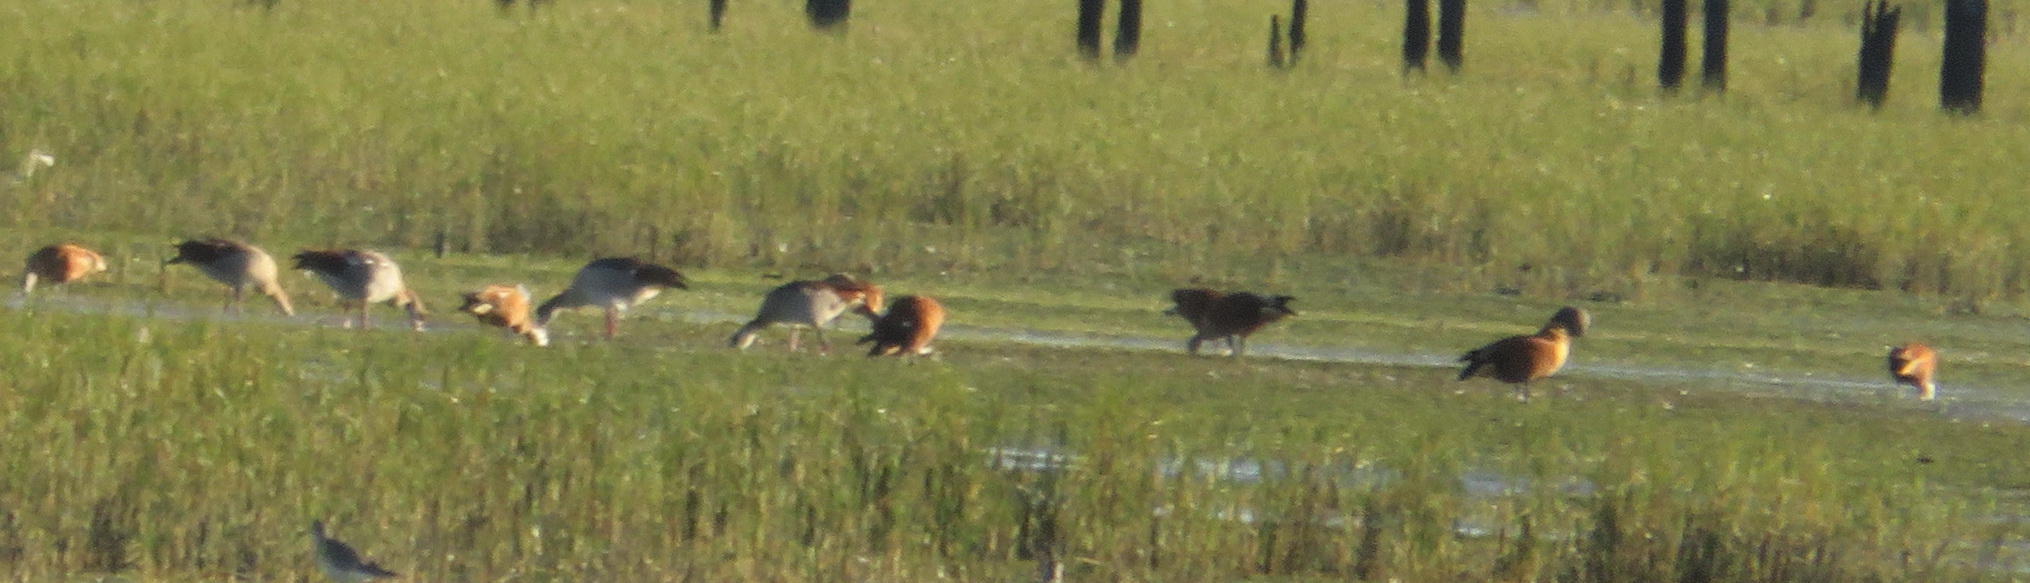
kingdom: Animalia
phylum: Chordata
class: Aves
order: Anseriformes
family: Anatidae
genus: Tadorna
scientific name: Tadorna cana
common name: South african shelduck
